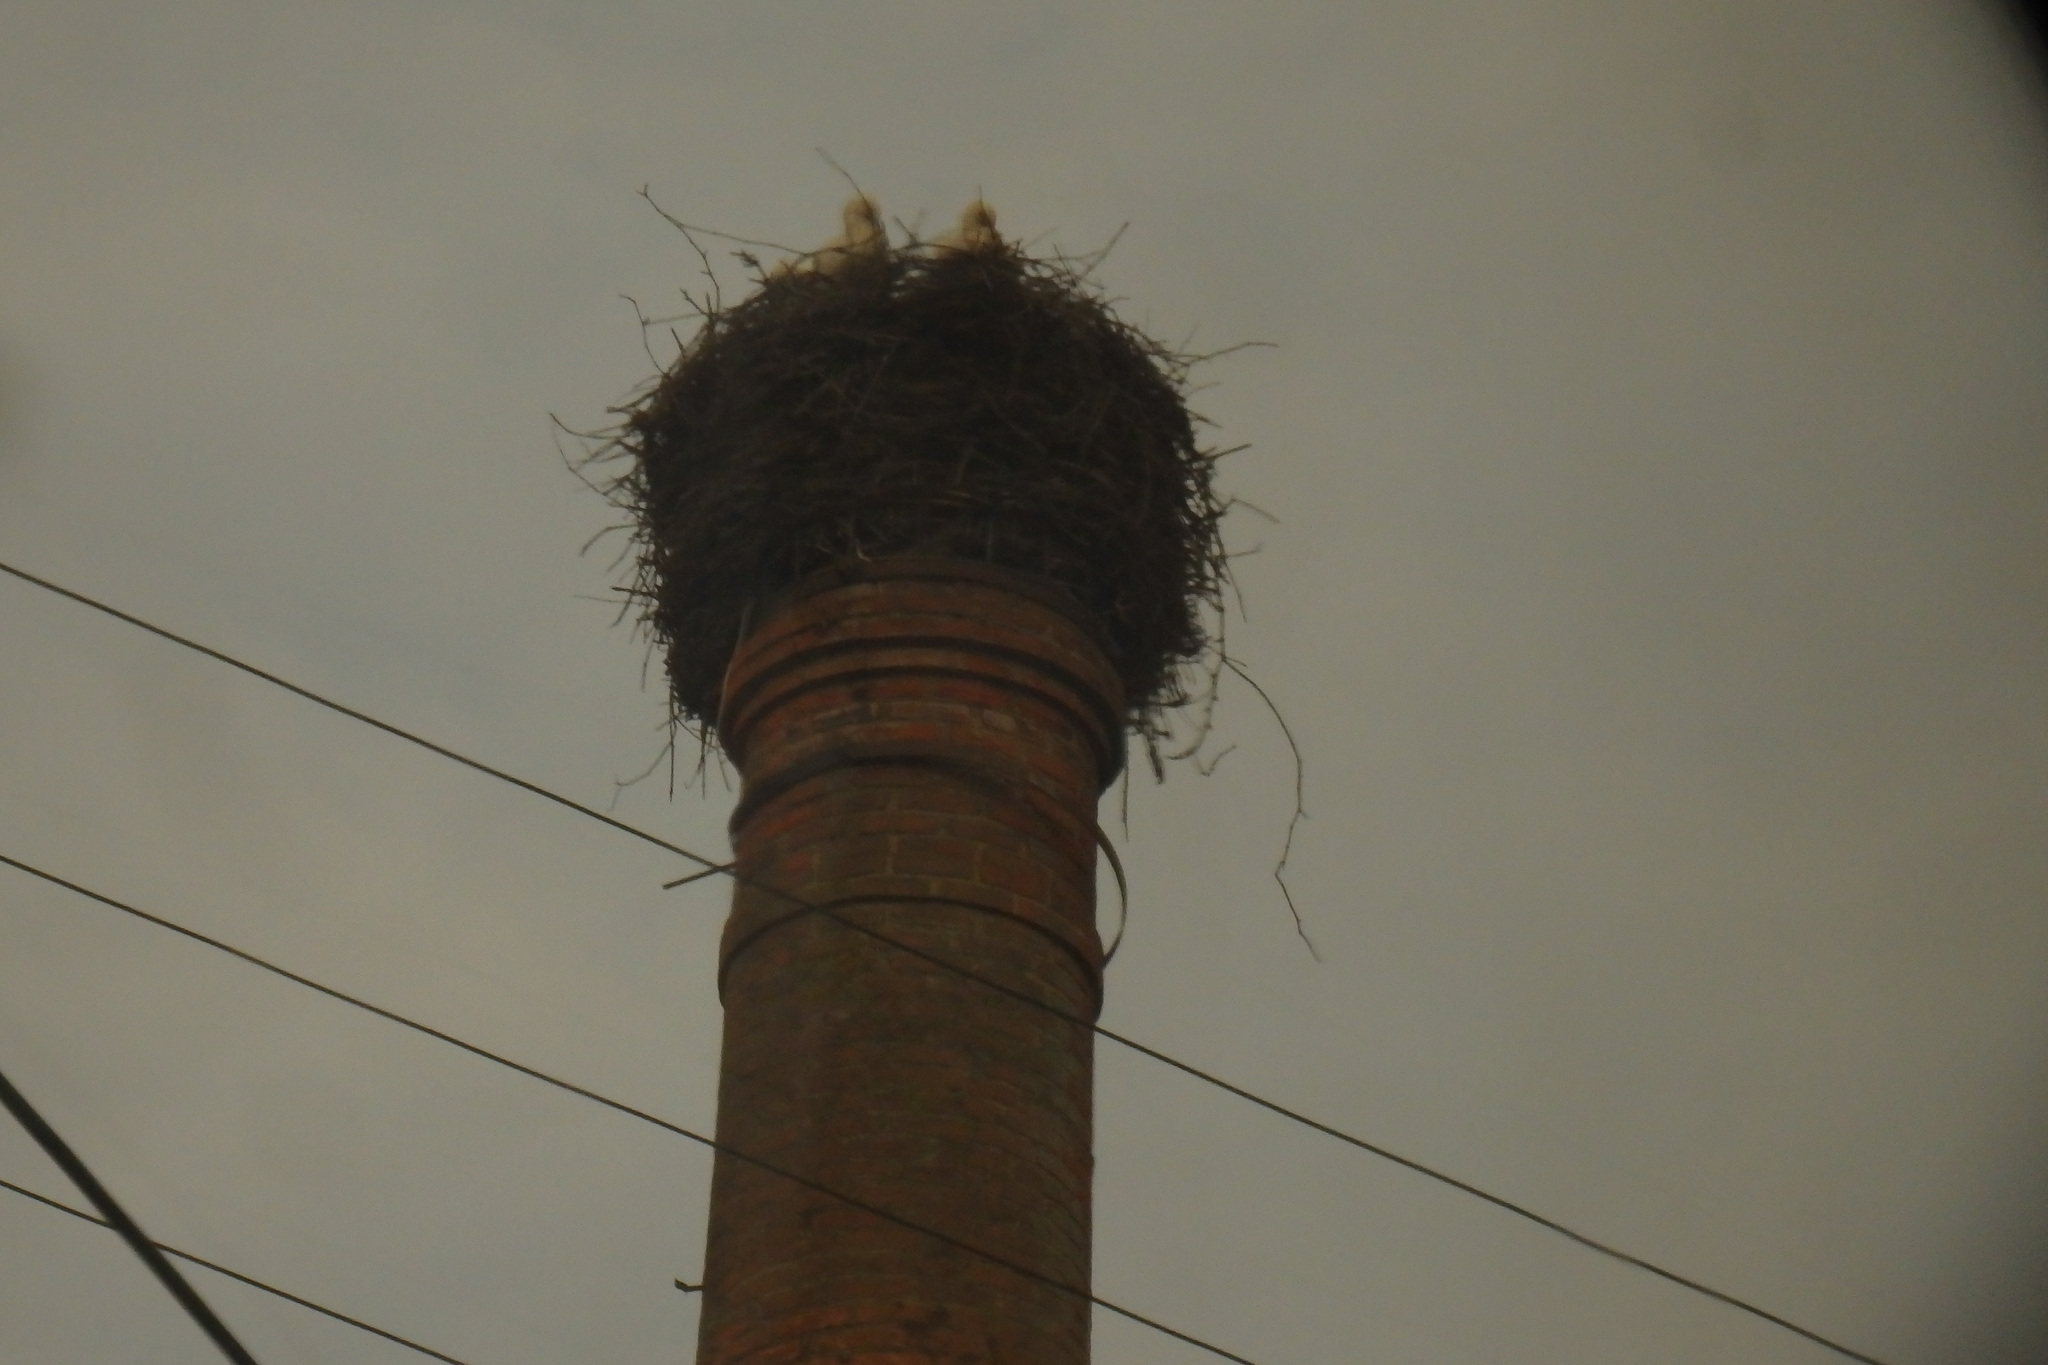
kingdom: Animalia
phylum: Chordata
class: Aves
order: Ciconiiformes
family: Ciconiidae
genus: Ciconia
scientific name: Ciconia ciconia
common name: White stork
